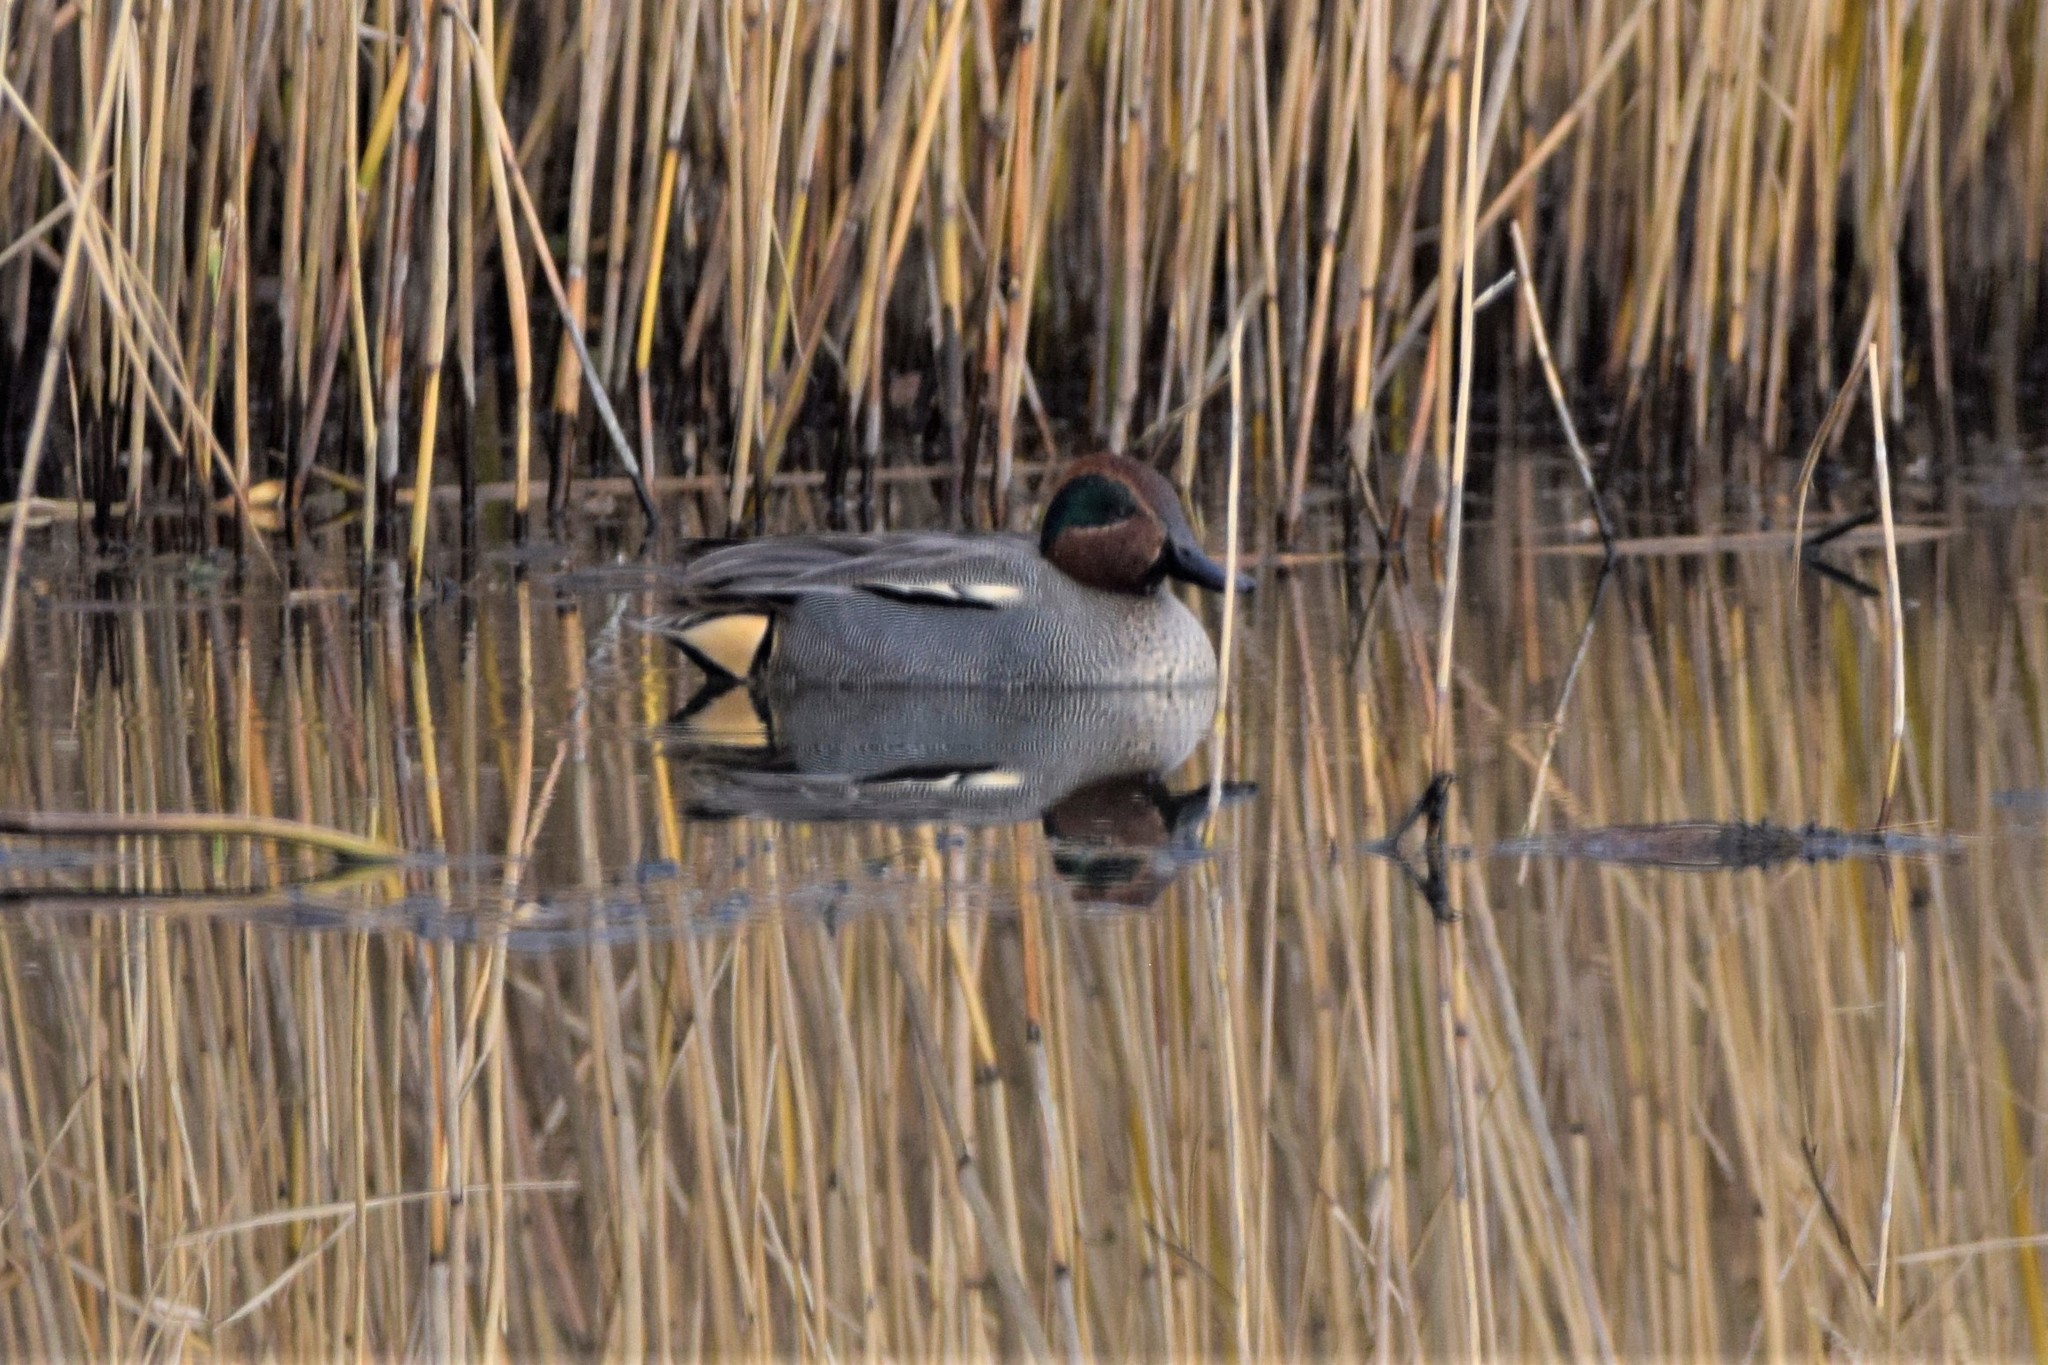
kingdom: Animalia
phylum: Chordata
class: Aves
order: Anseriformes
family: Anatidae
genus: Anas
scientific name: Anas crecca
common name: Eurasian teal
